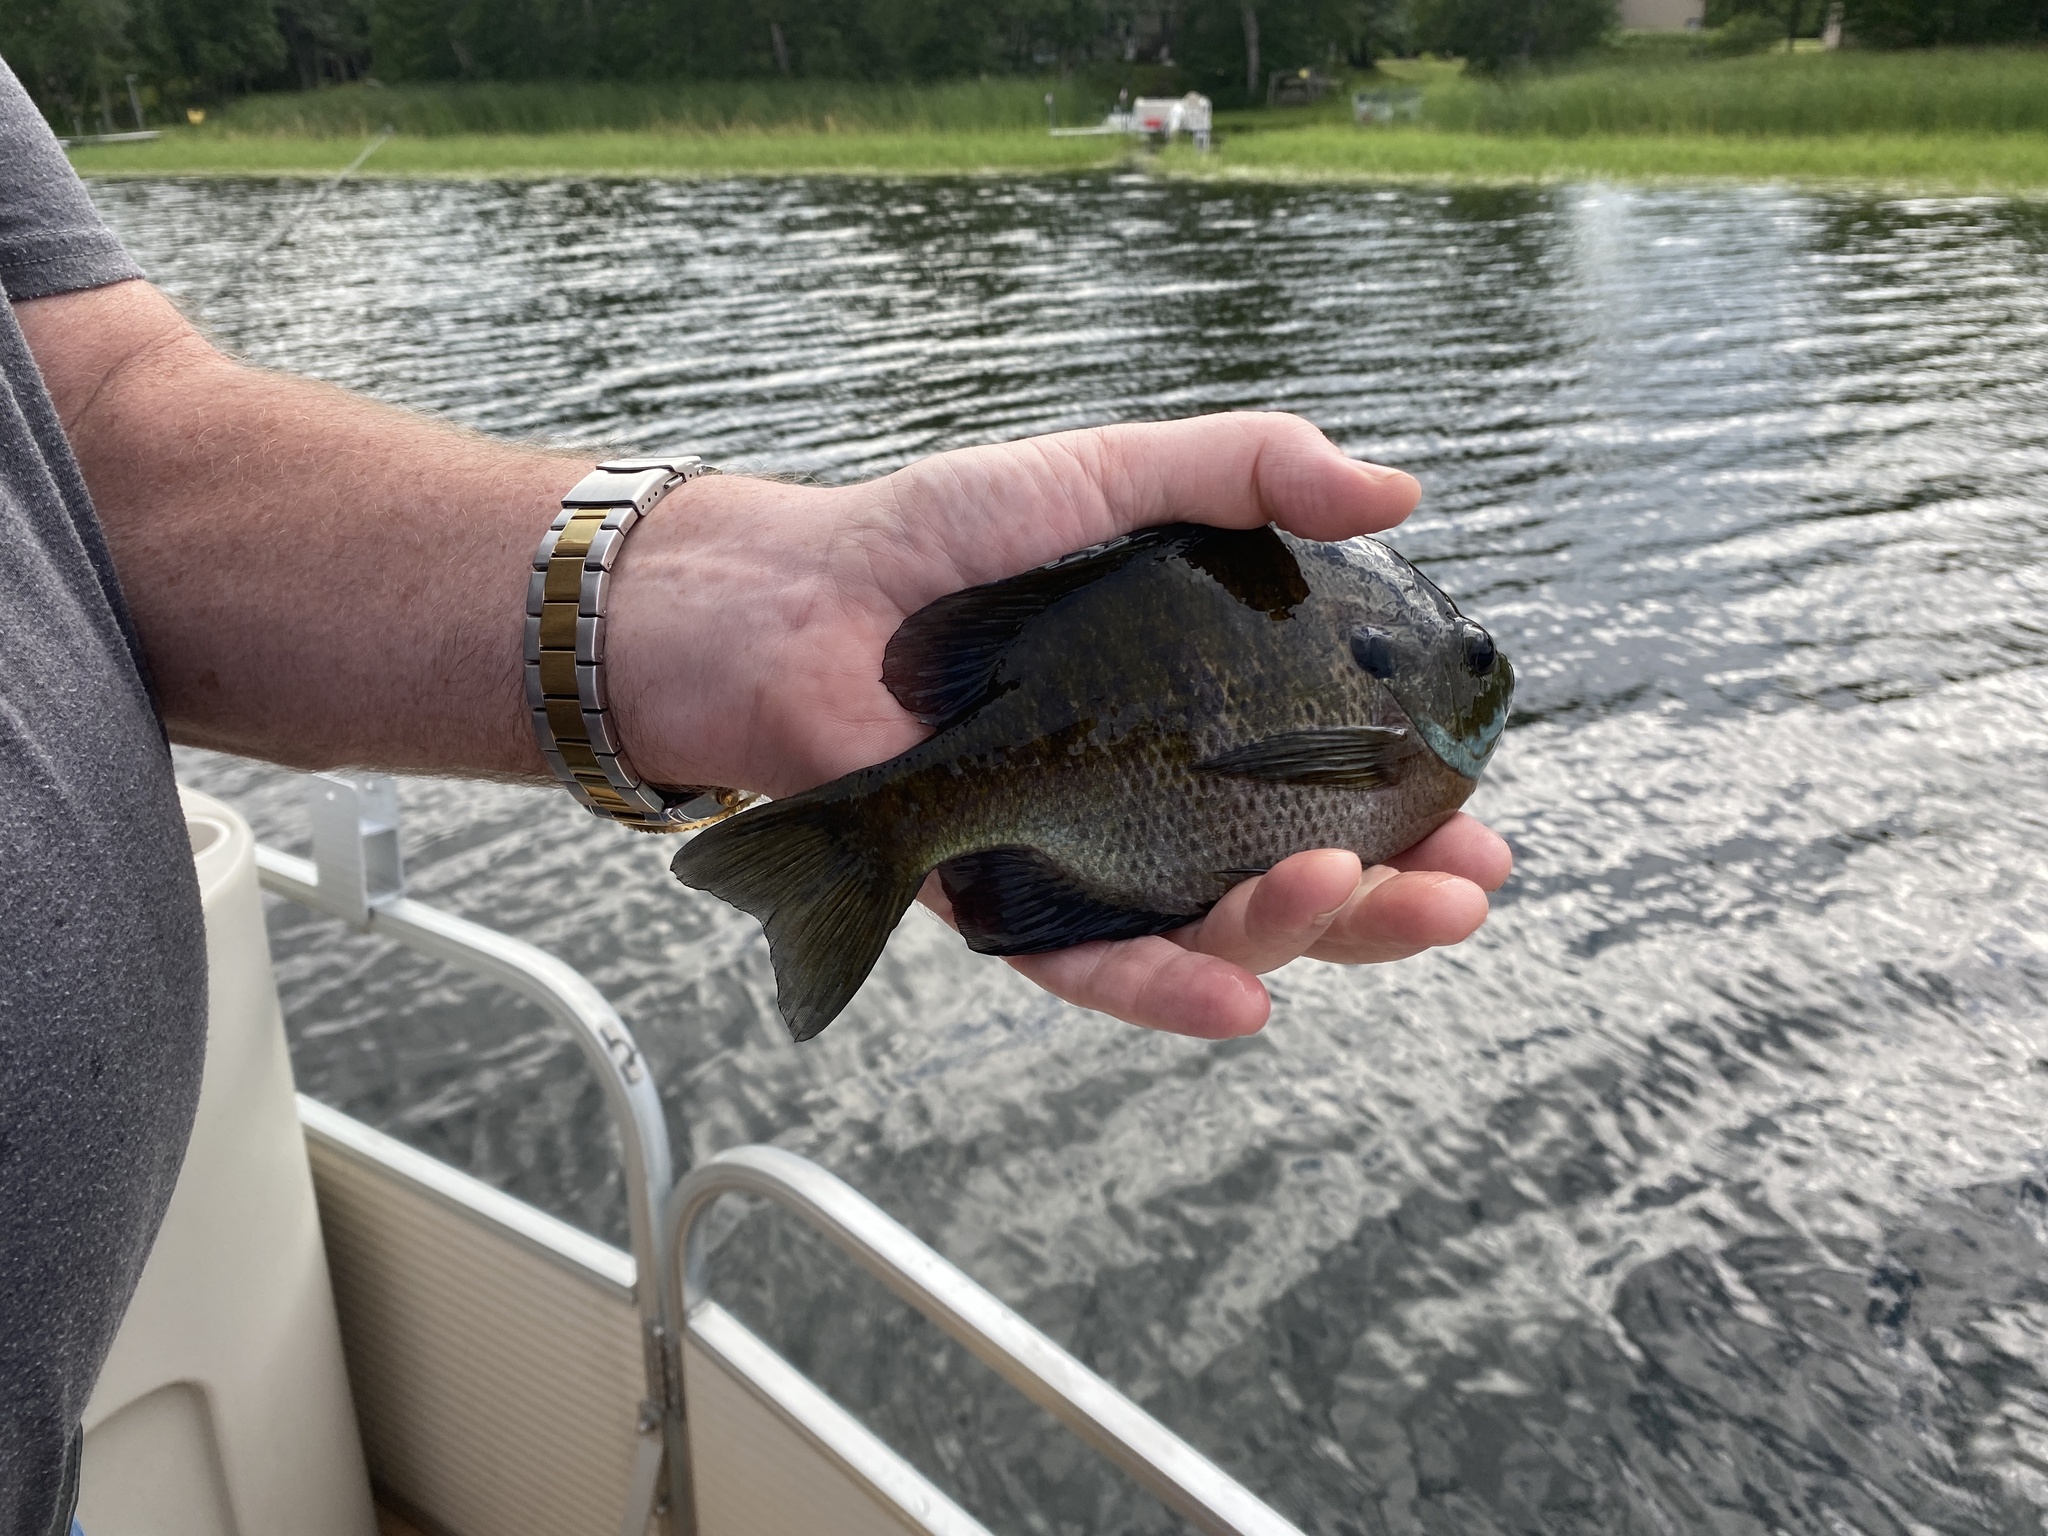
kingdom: Animalia
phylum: Chordata
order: Perciformes
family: Centrarchidae
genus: Lepomis
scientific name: Lepomis macrochirus
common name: Bluegill
